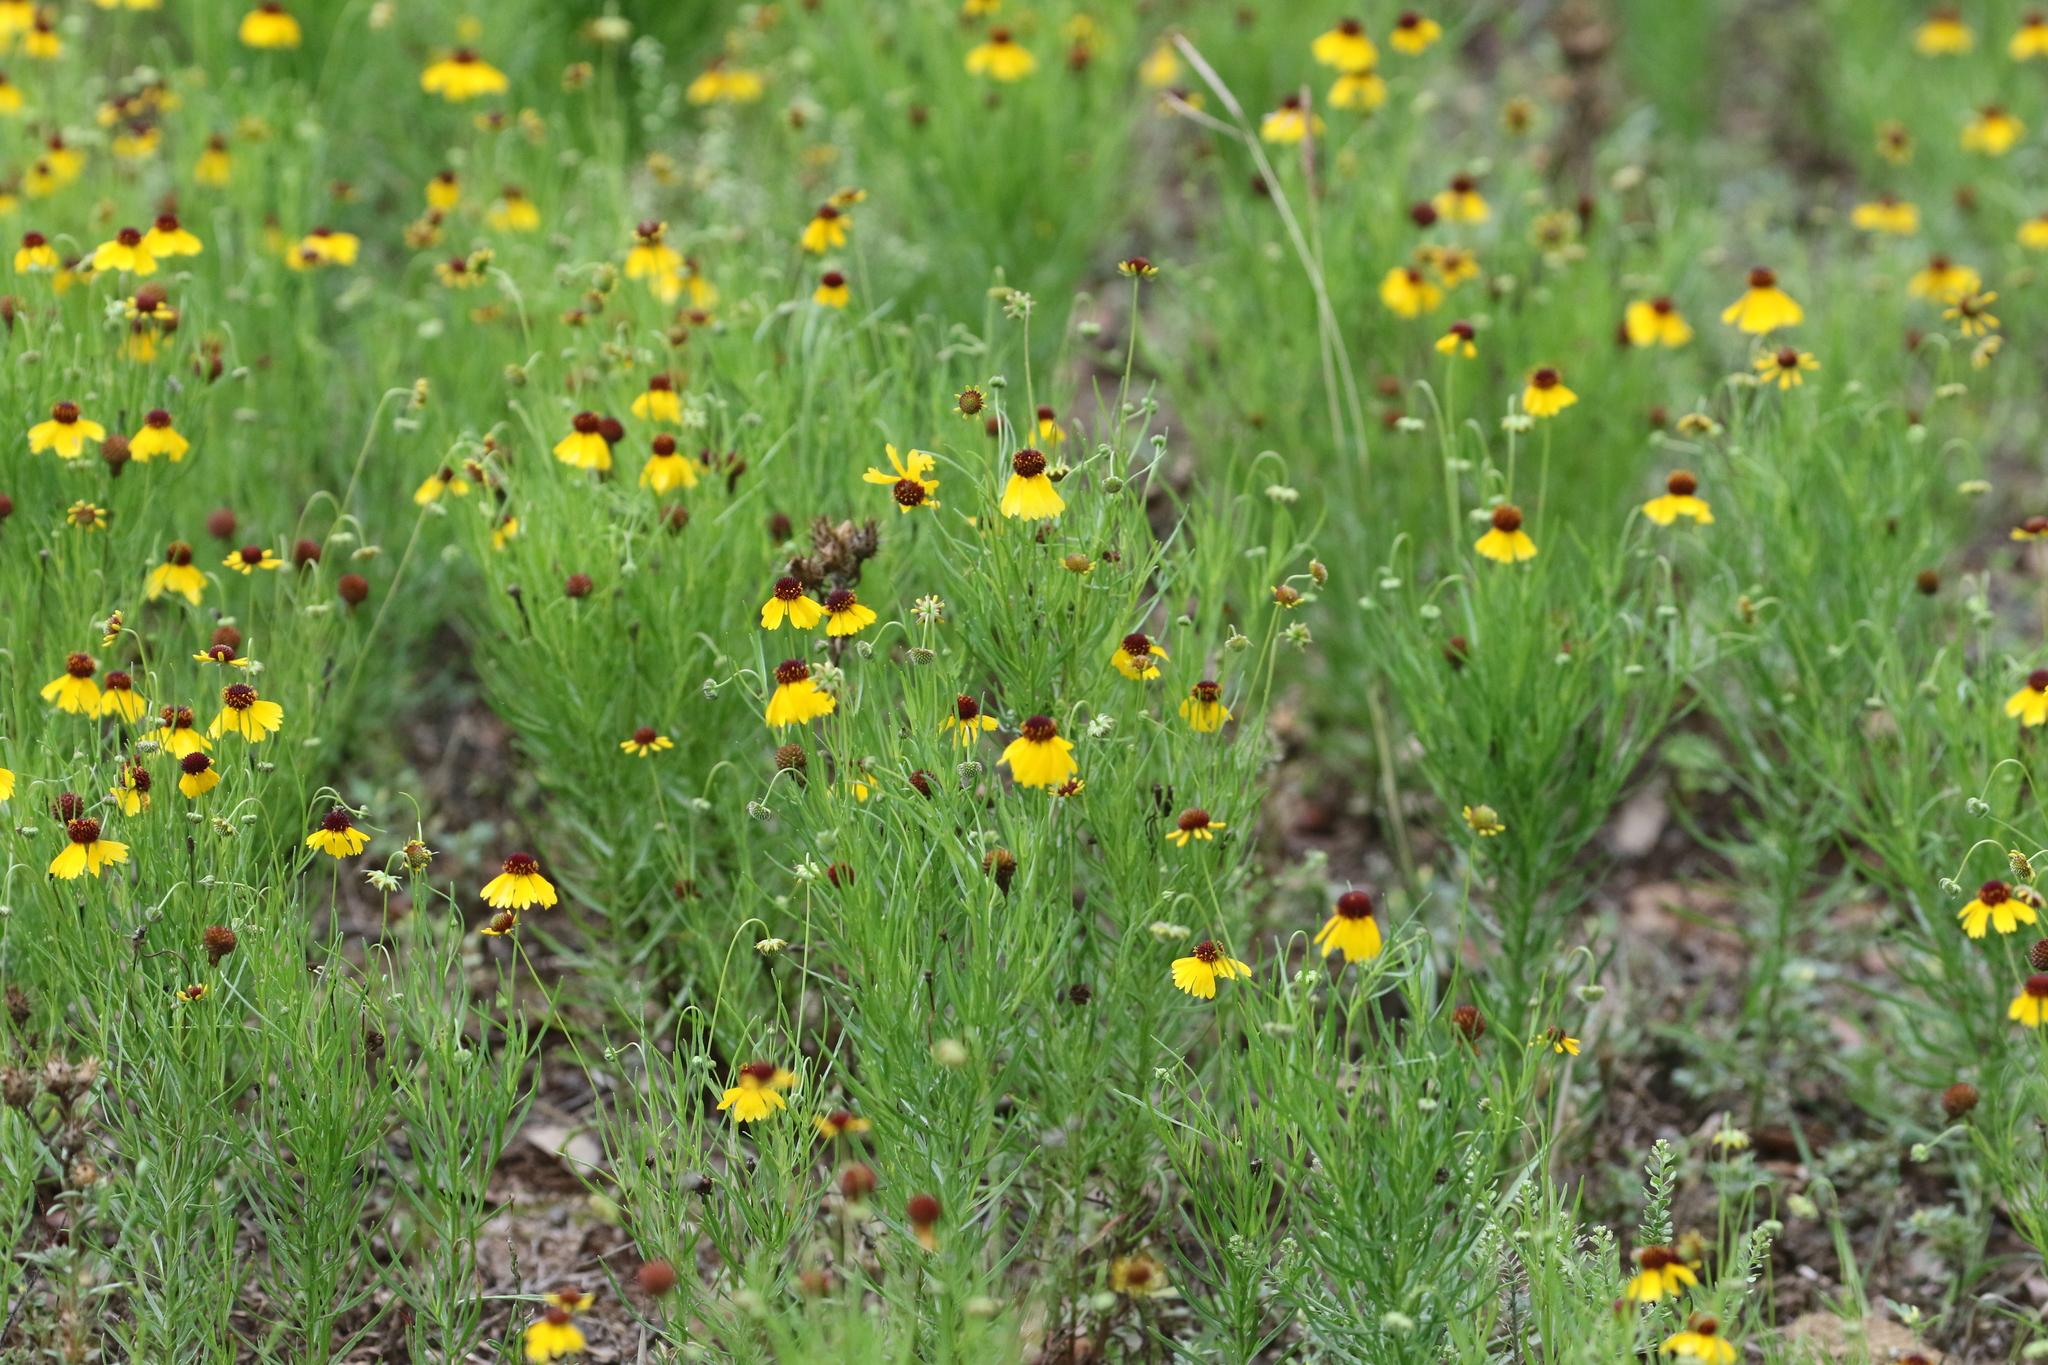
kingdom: Plantae
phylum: Tracheophyta
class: Magnoliopsida
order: Asterales
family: Asteraceae
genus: Helenium
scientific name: Helenium amarum
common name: Bitter sneezeweed
